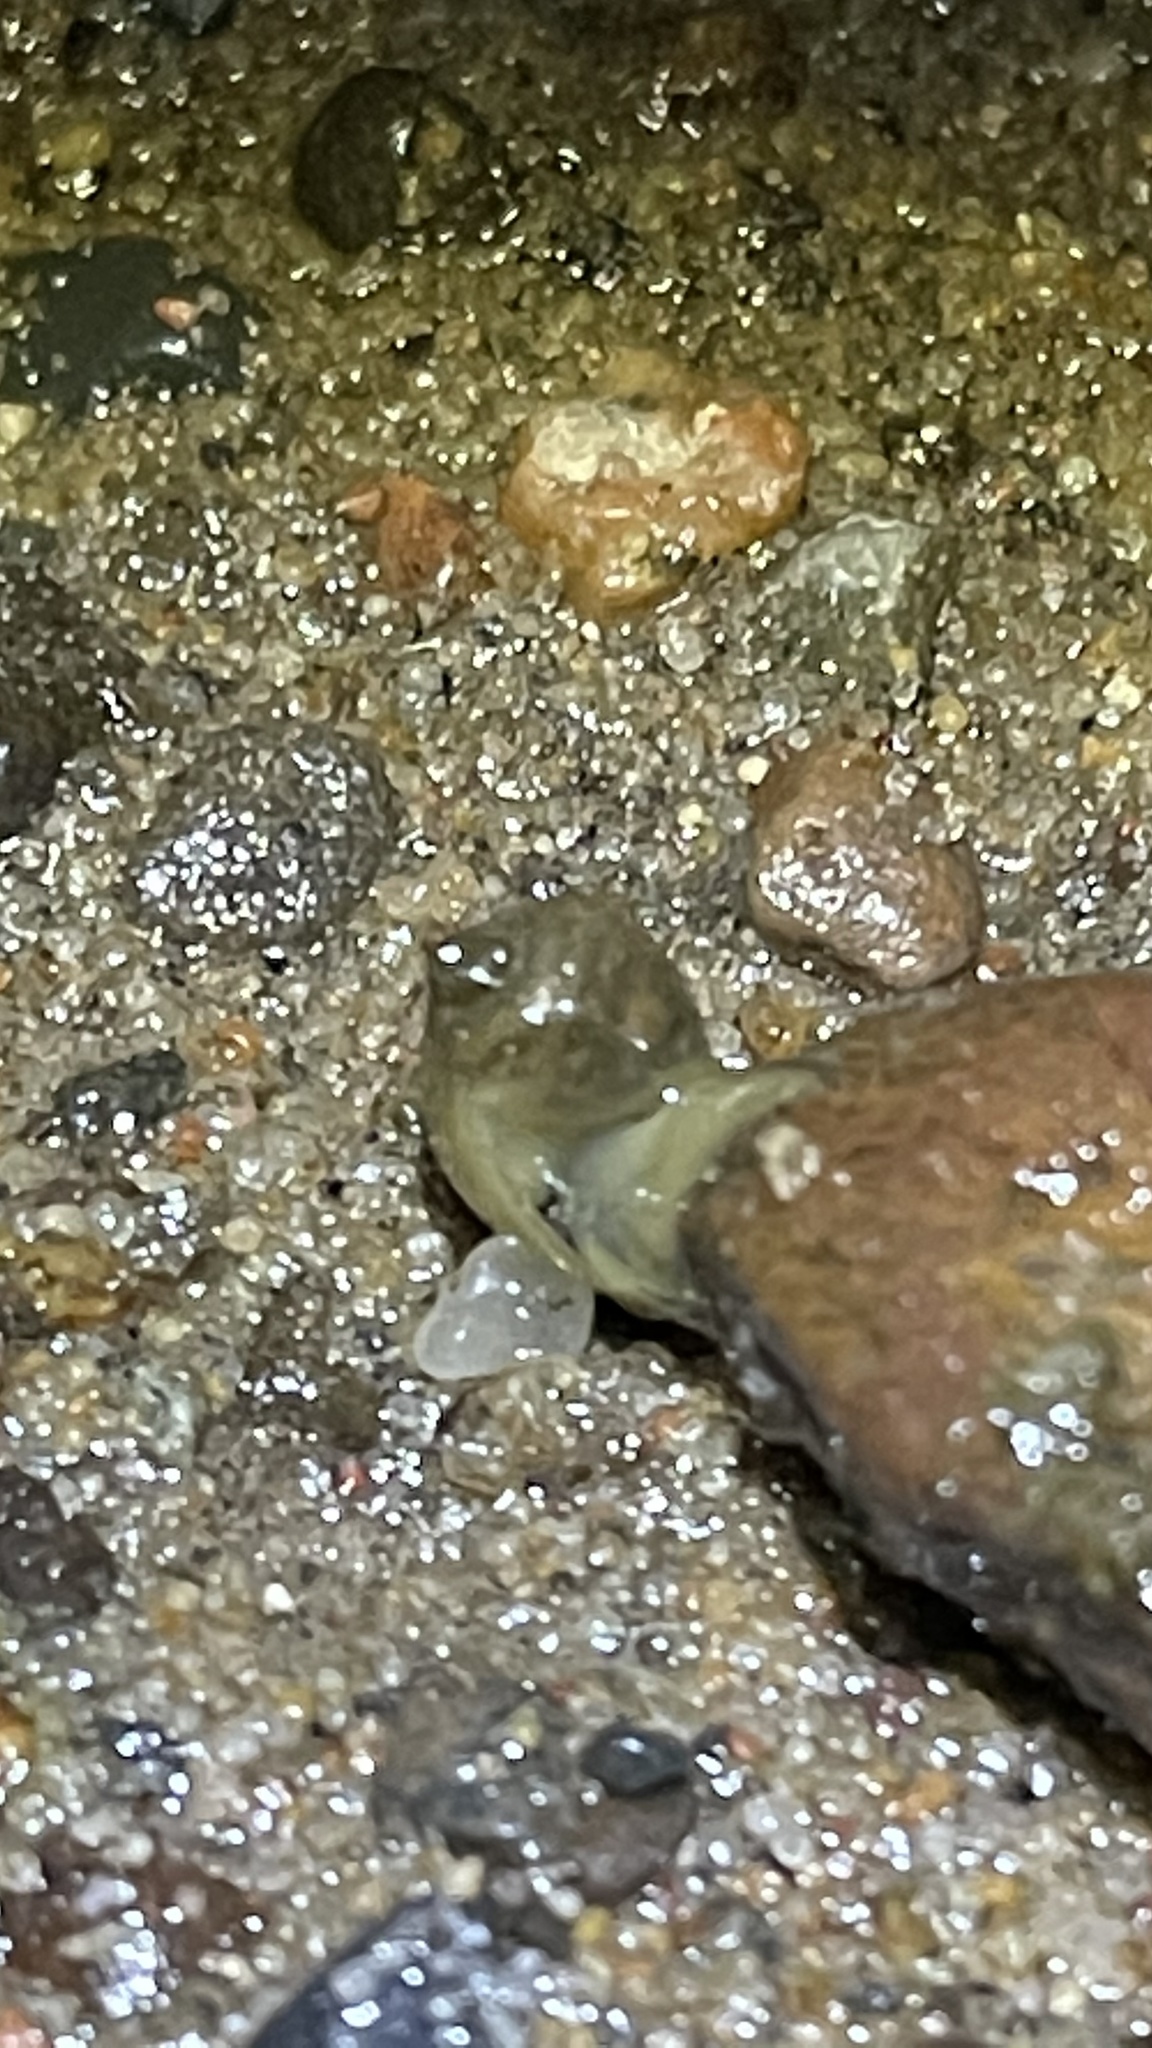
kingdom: Animalia
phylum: Mollusca
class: Gastropoda
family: Physidae
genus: Physella
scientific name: Physella acuta
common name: European physa
